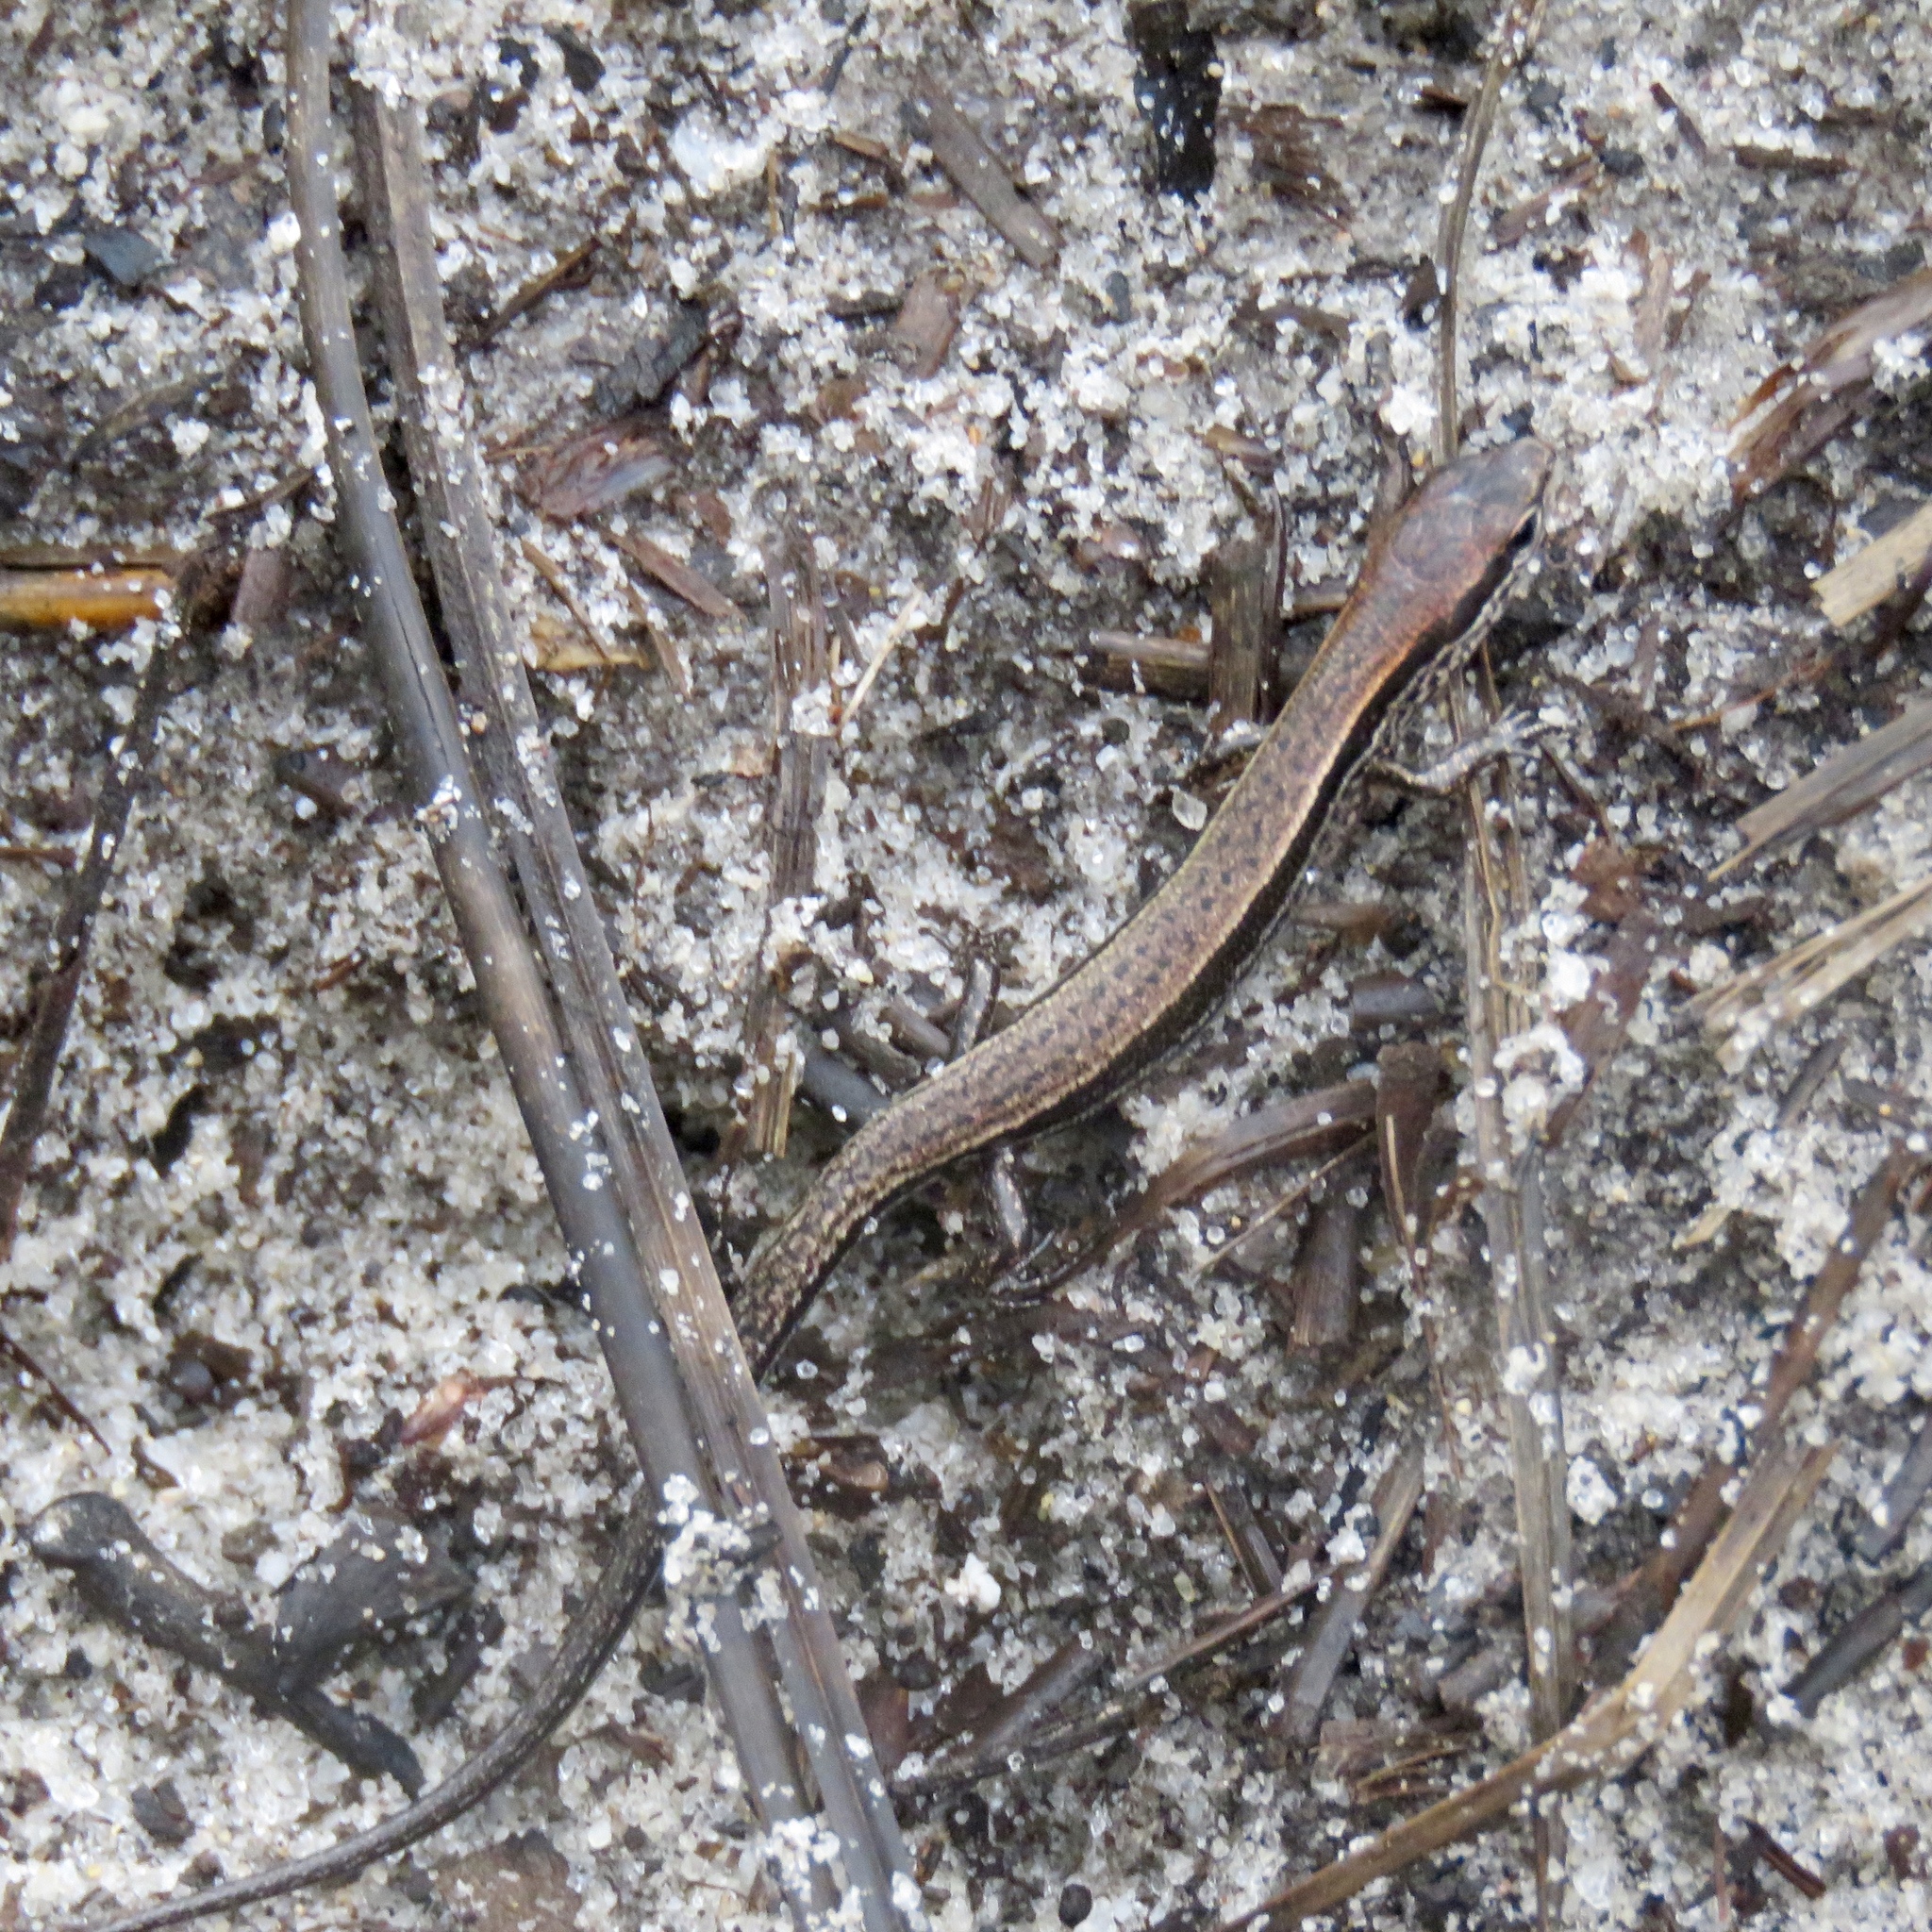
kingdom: Animalia
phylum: Chordata
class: Squamata
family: Scincidae
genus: Scincella
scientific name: Scincella lateralis
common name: Ground skink
